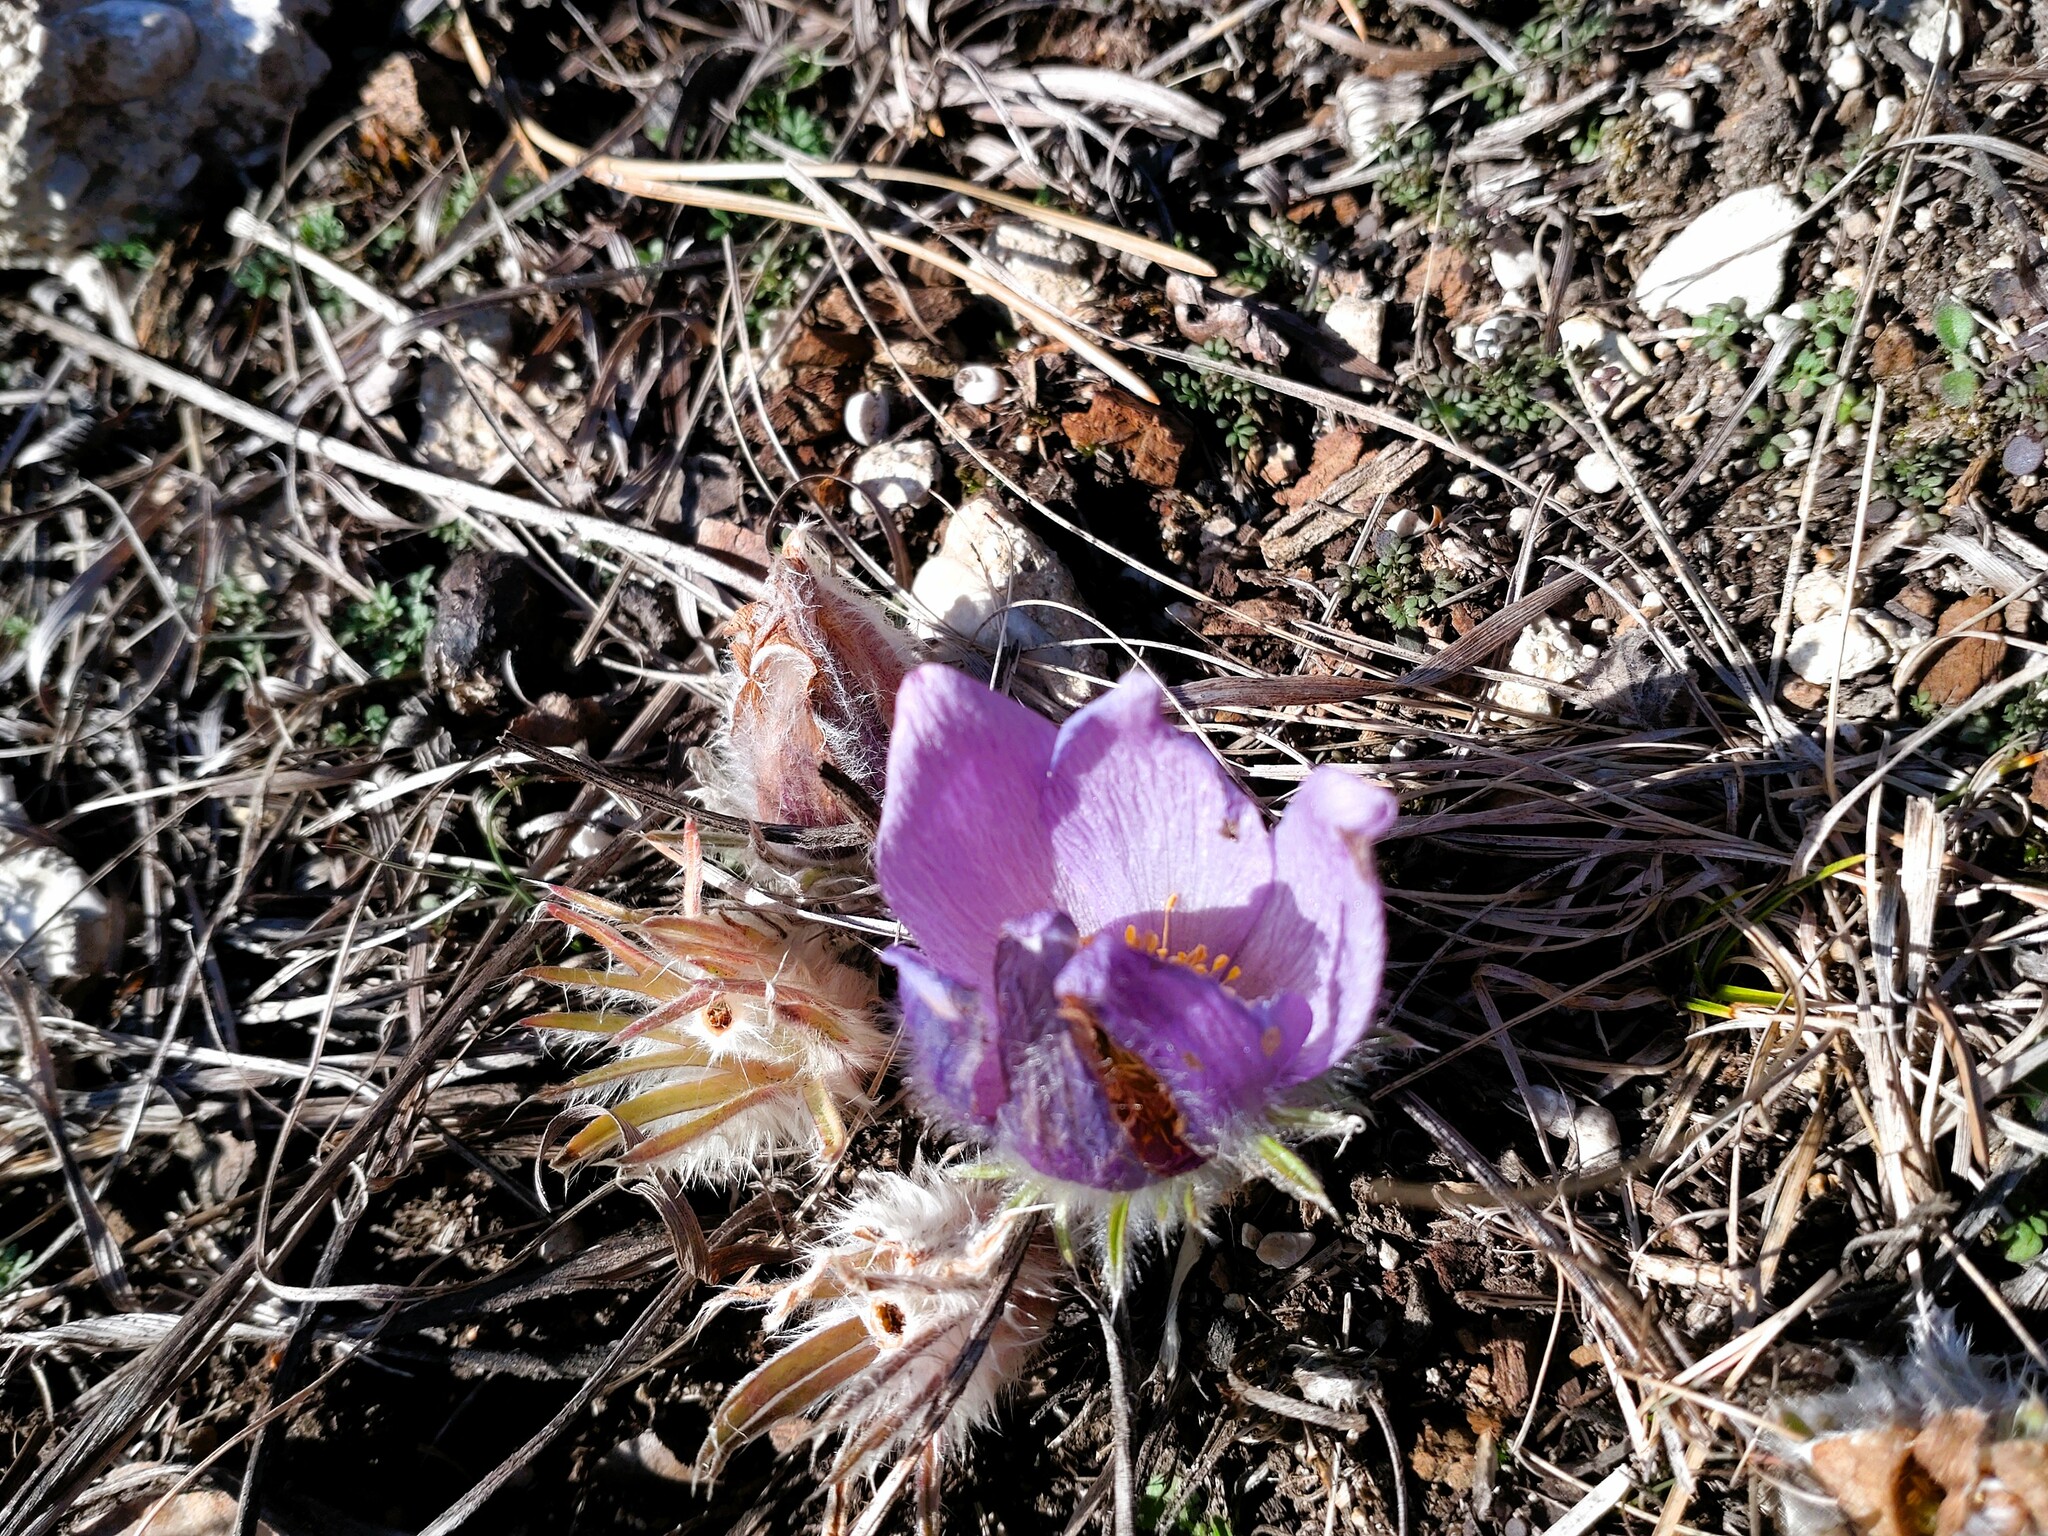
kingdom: Plantae
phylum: Tracheophyta
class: Magnoliopsida
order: Ranunculales
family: Ranunculaceae
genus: Pulsatilla
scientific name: Pulsatilla grandis
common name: Greater pasque flower
